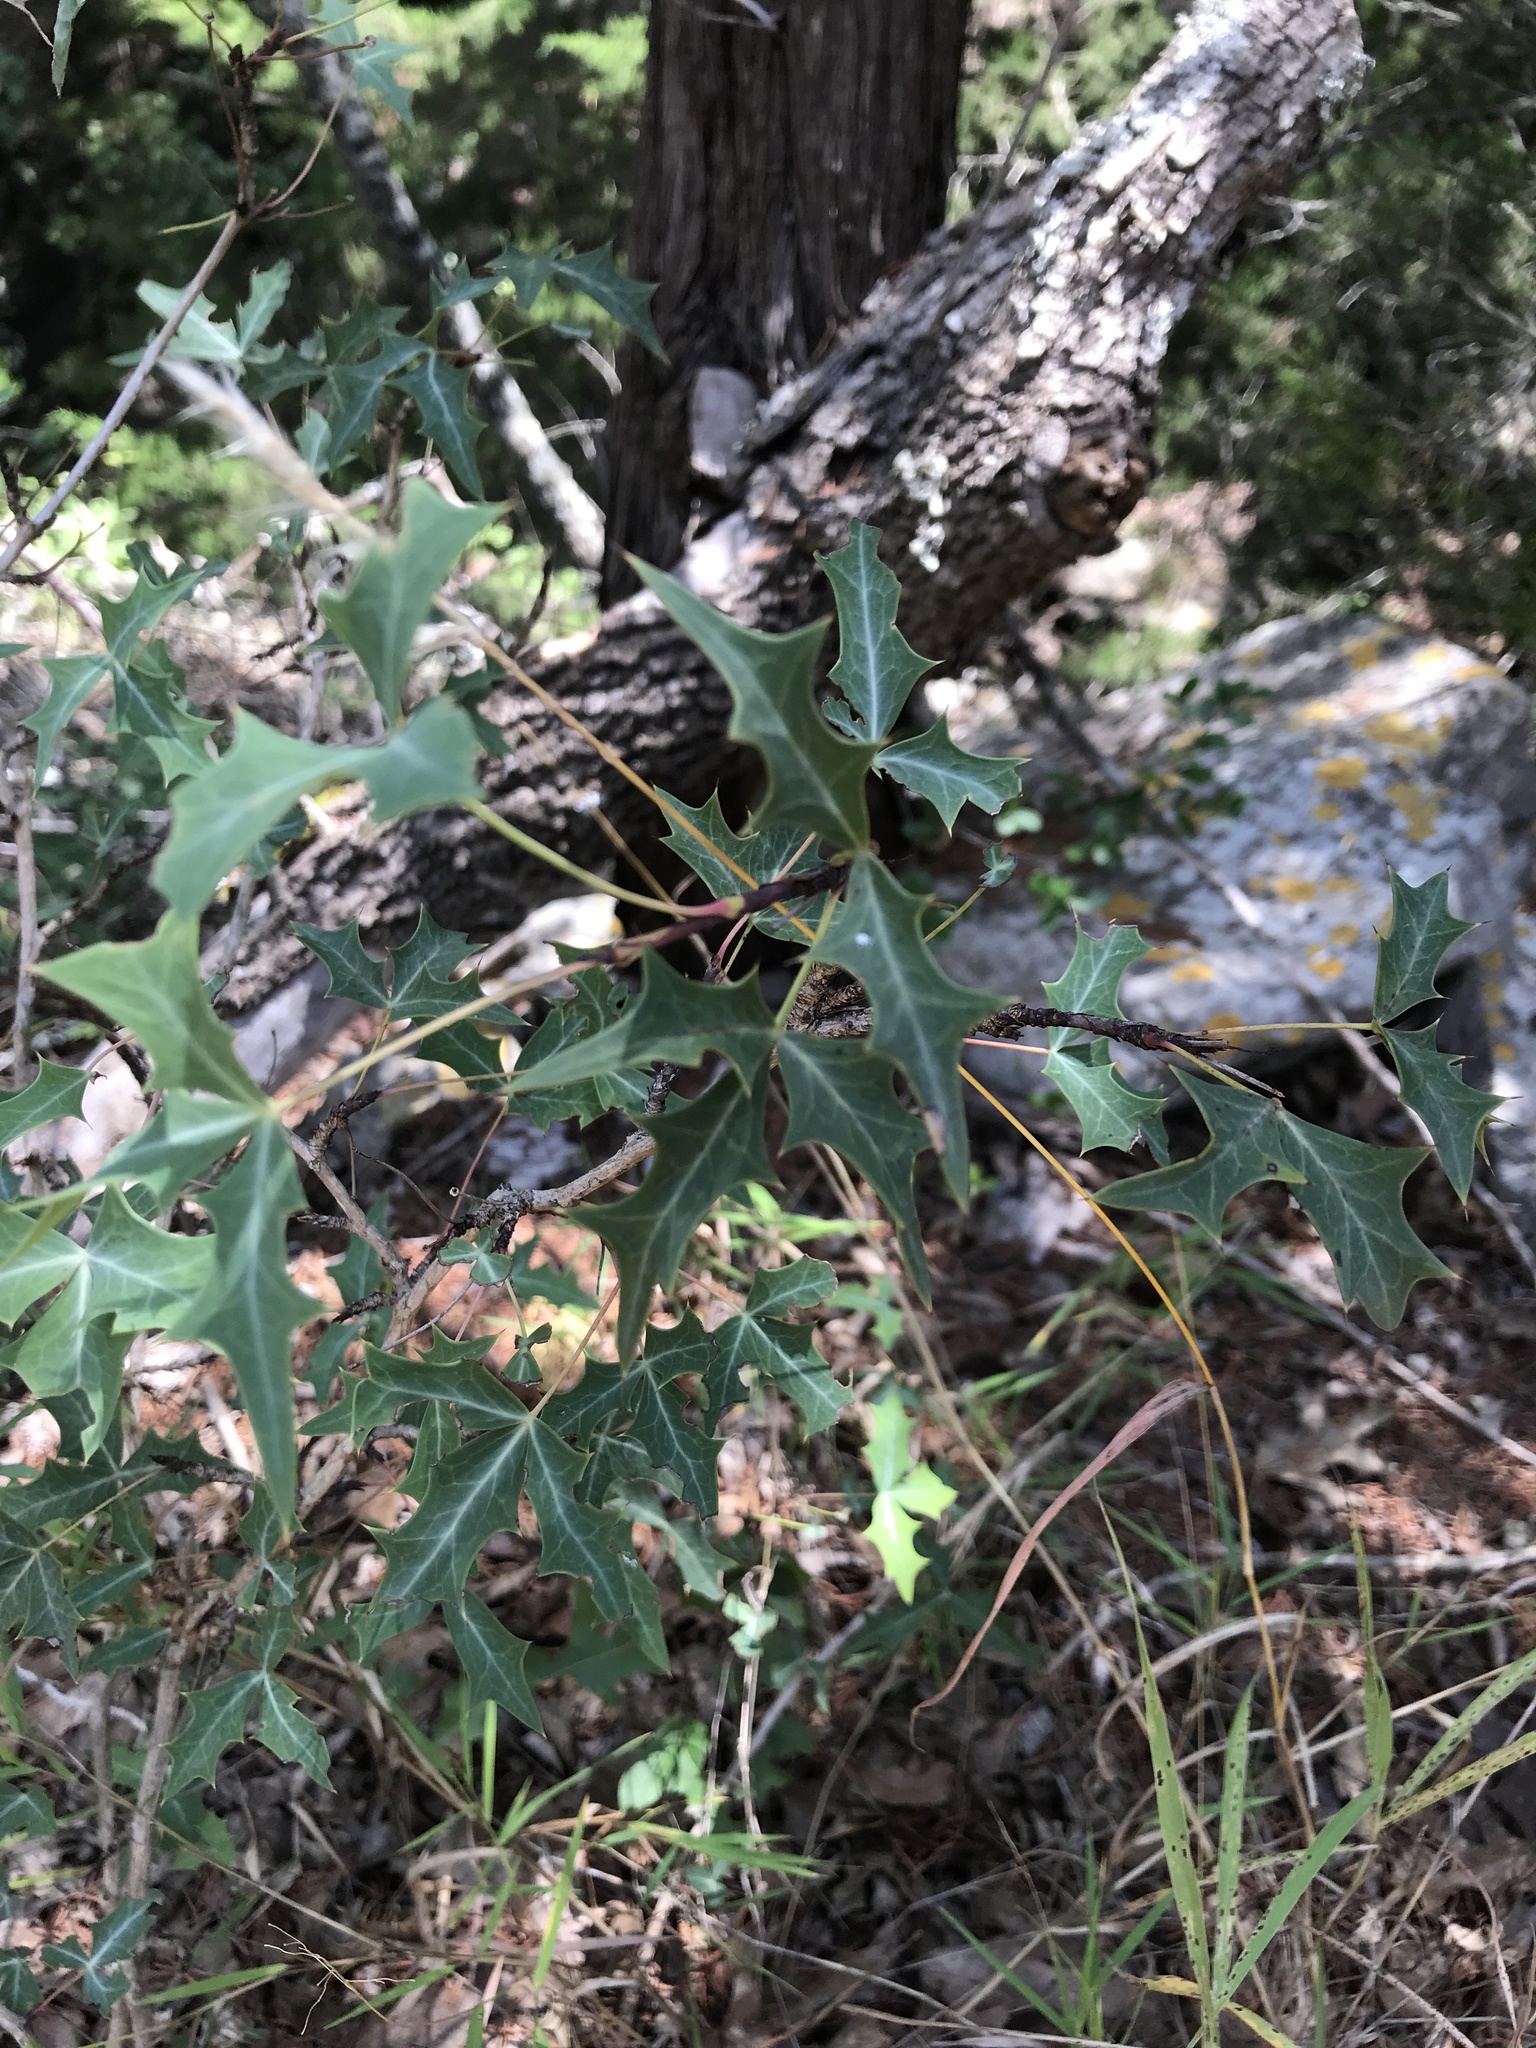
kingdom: Plantae
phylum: Tracheophyta
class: Magnoliopsida
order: Ranunculales
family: Berberidaceae
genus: Alloberberis
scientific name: Alloberberis trifoliolata
